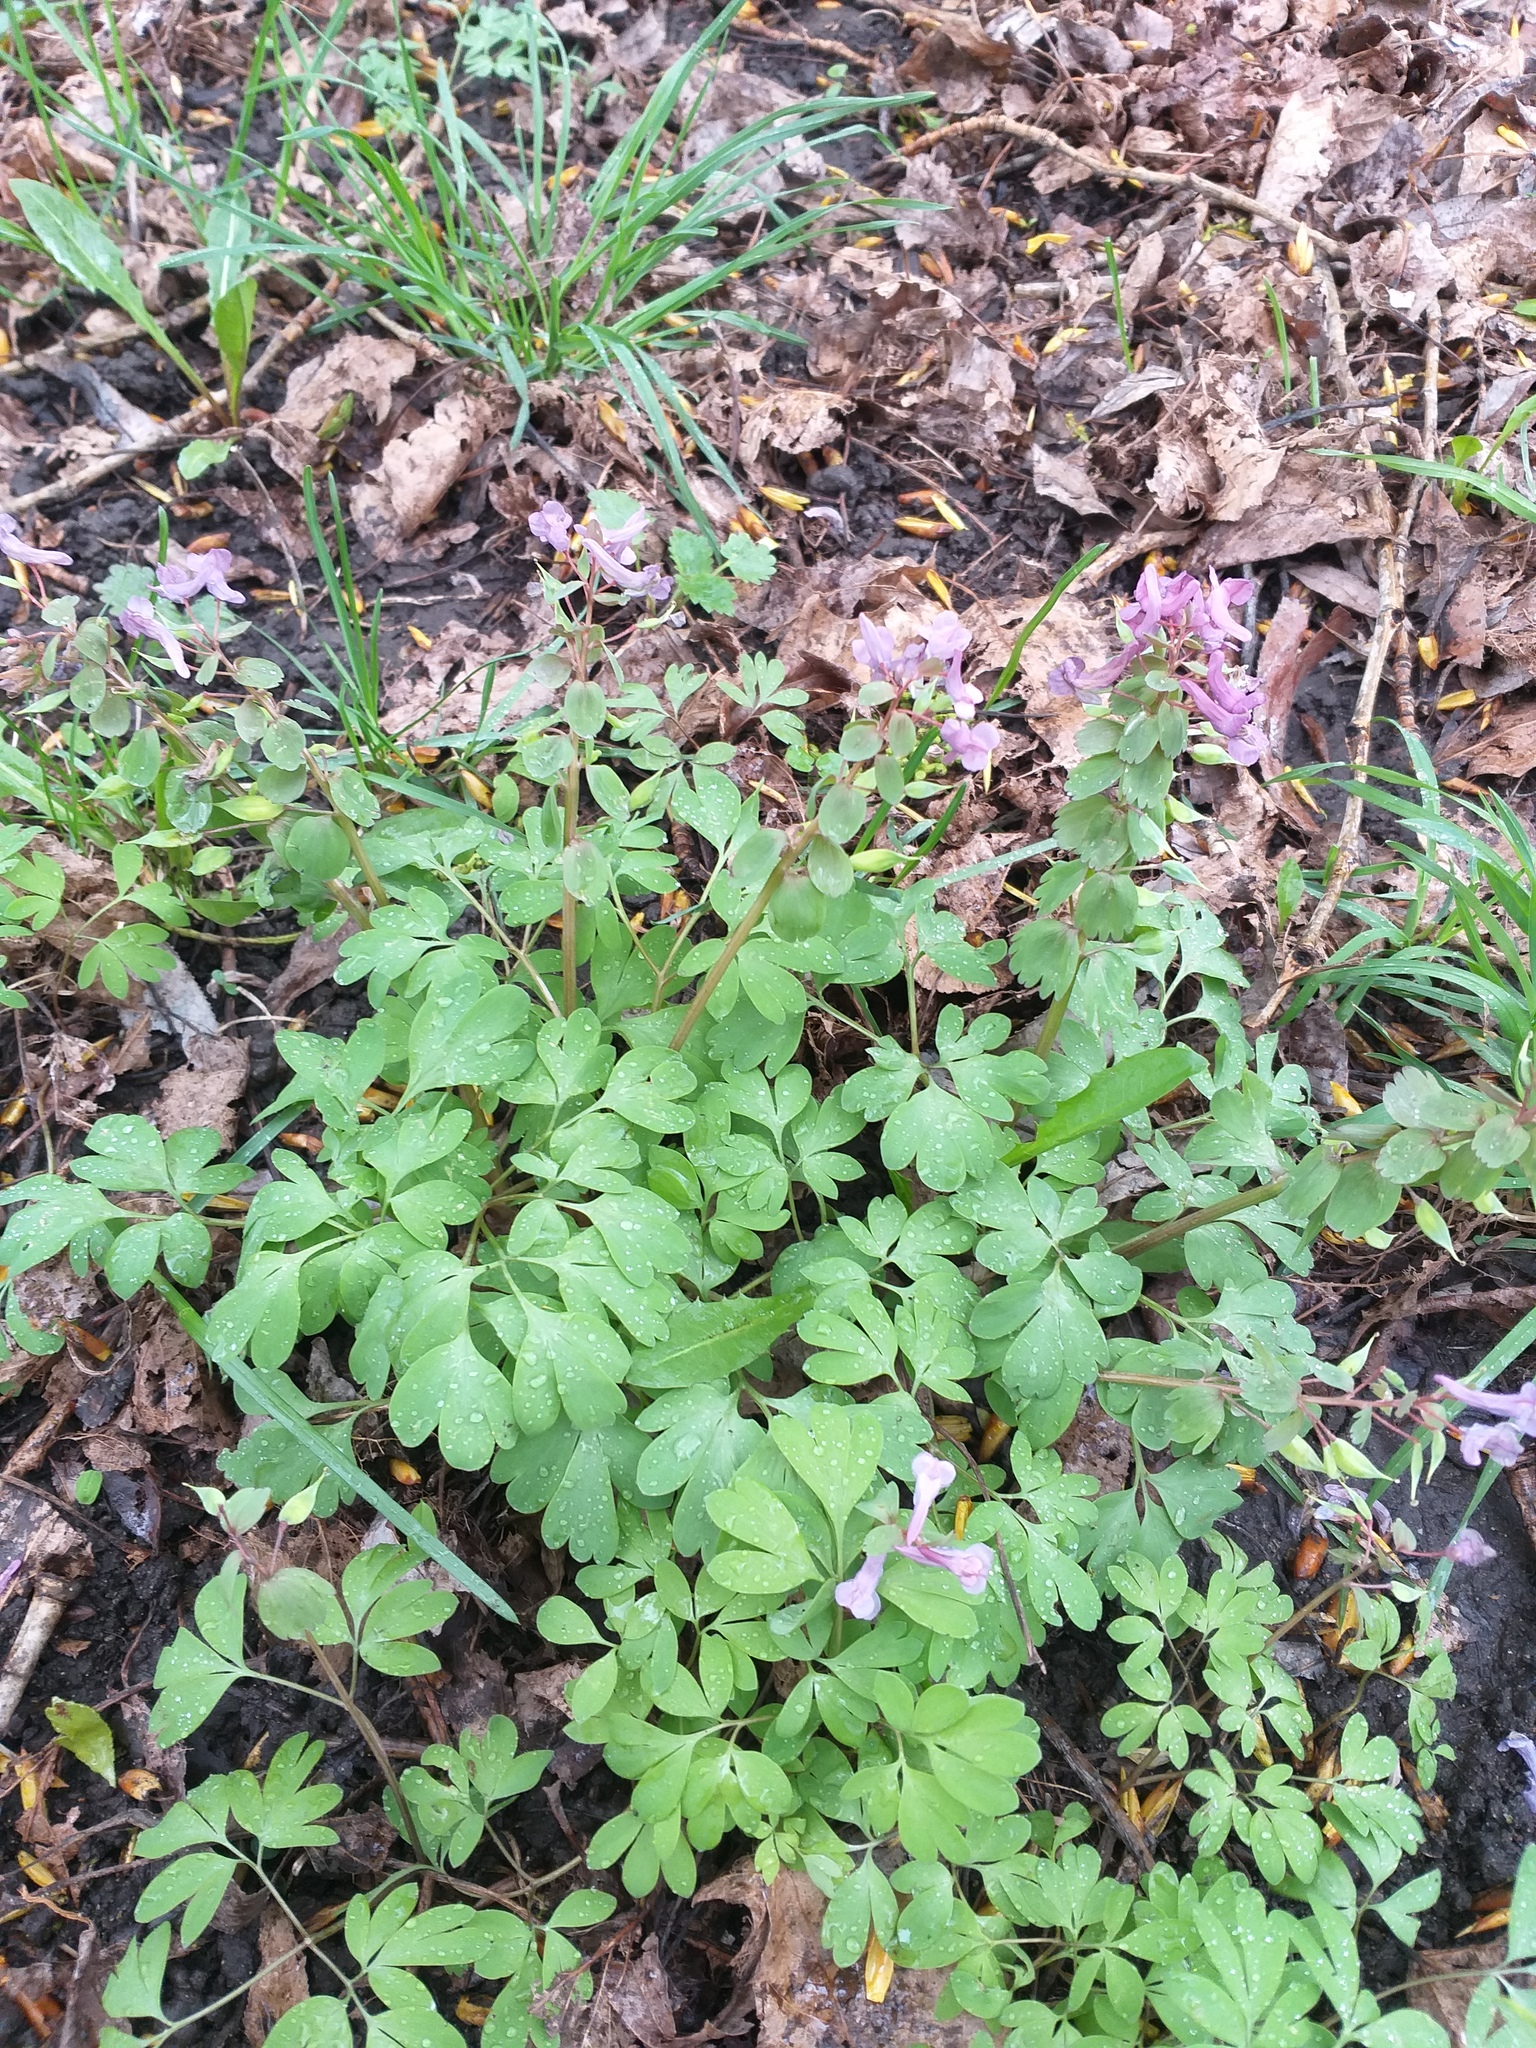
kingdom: Plantae
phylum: Tracheophyta
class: Magnoliopsida
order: Ranunculales
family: Papaveraceae
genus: Corydalis
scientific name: Corydalis solida
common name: Bird-in-a-bush
